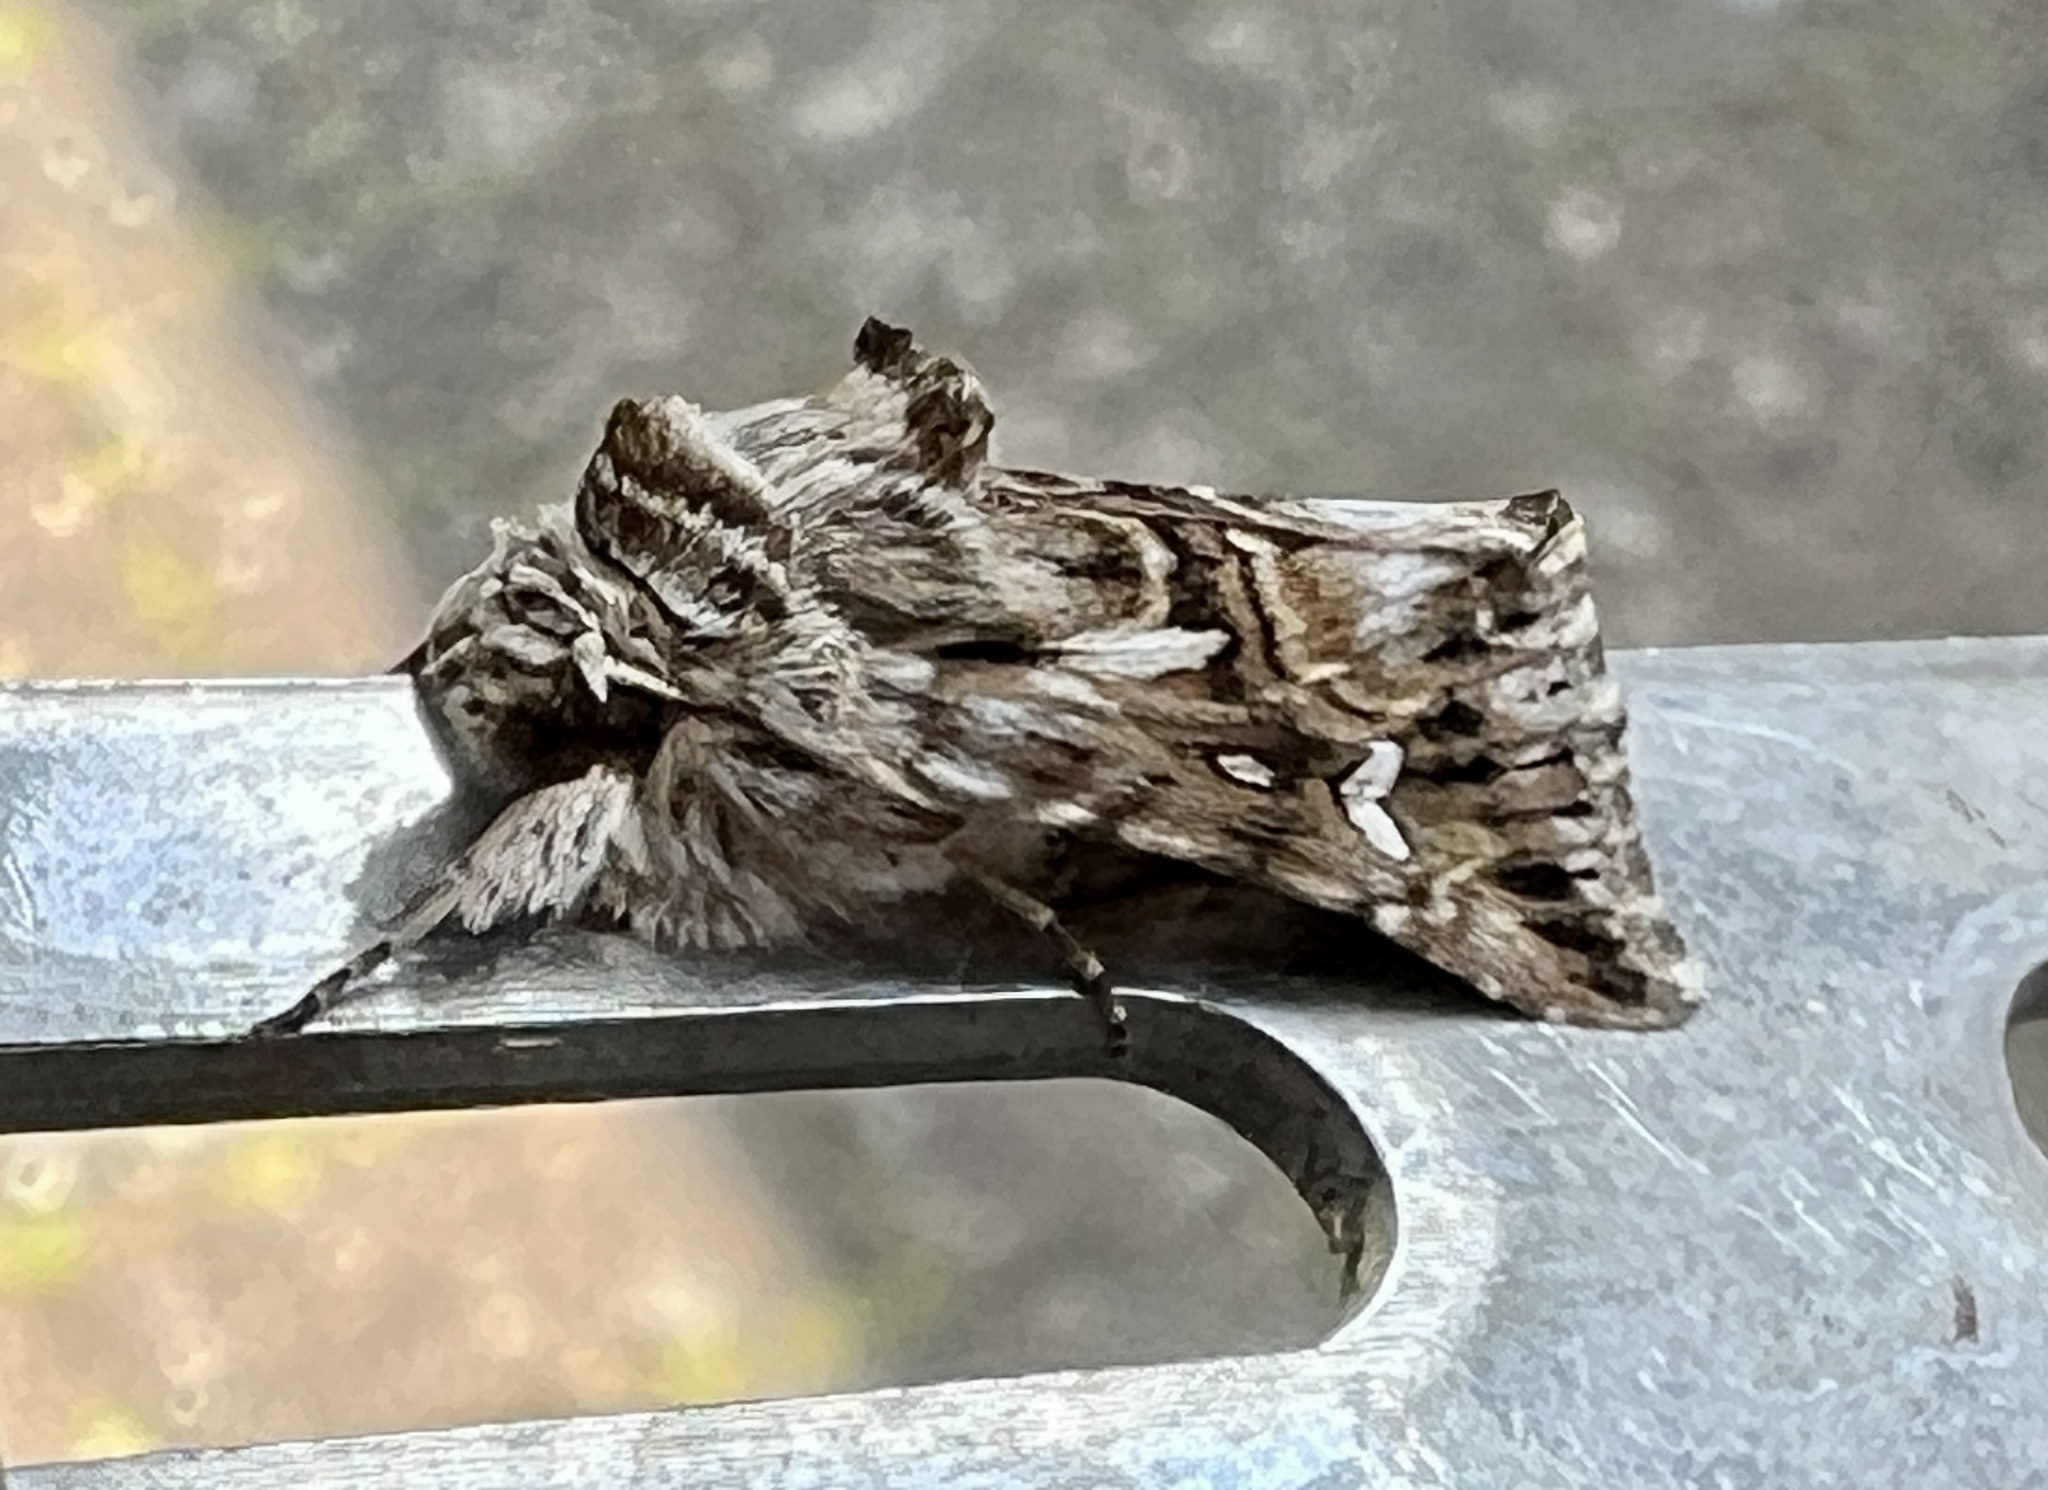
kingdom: Animalia
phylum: Arthropoda
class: Insecta
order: Lepidoptera
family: Noctuidae
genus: Calophasia
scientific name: Calophasia lunula
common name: Toadflax brocade
